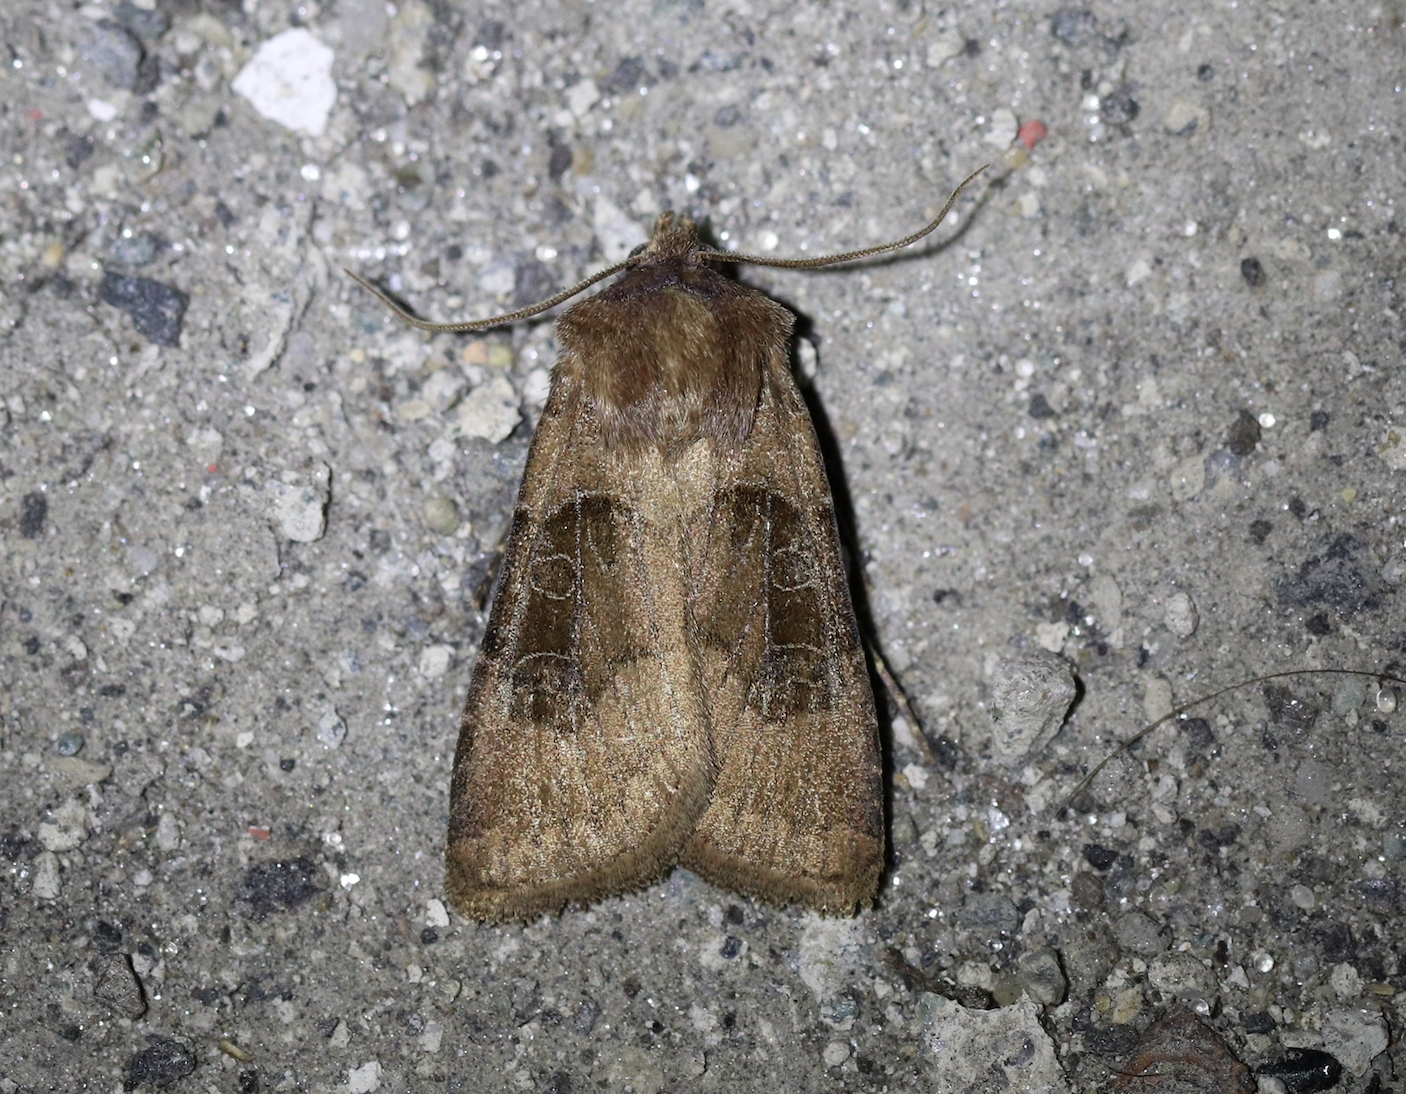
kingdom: Animalia
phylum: Arthropoda
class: Insecta
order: Lepidoptera
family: Noctuidae
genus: Chersotis
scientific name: Chersotis cuprea
